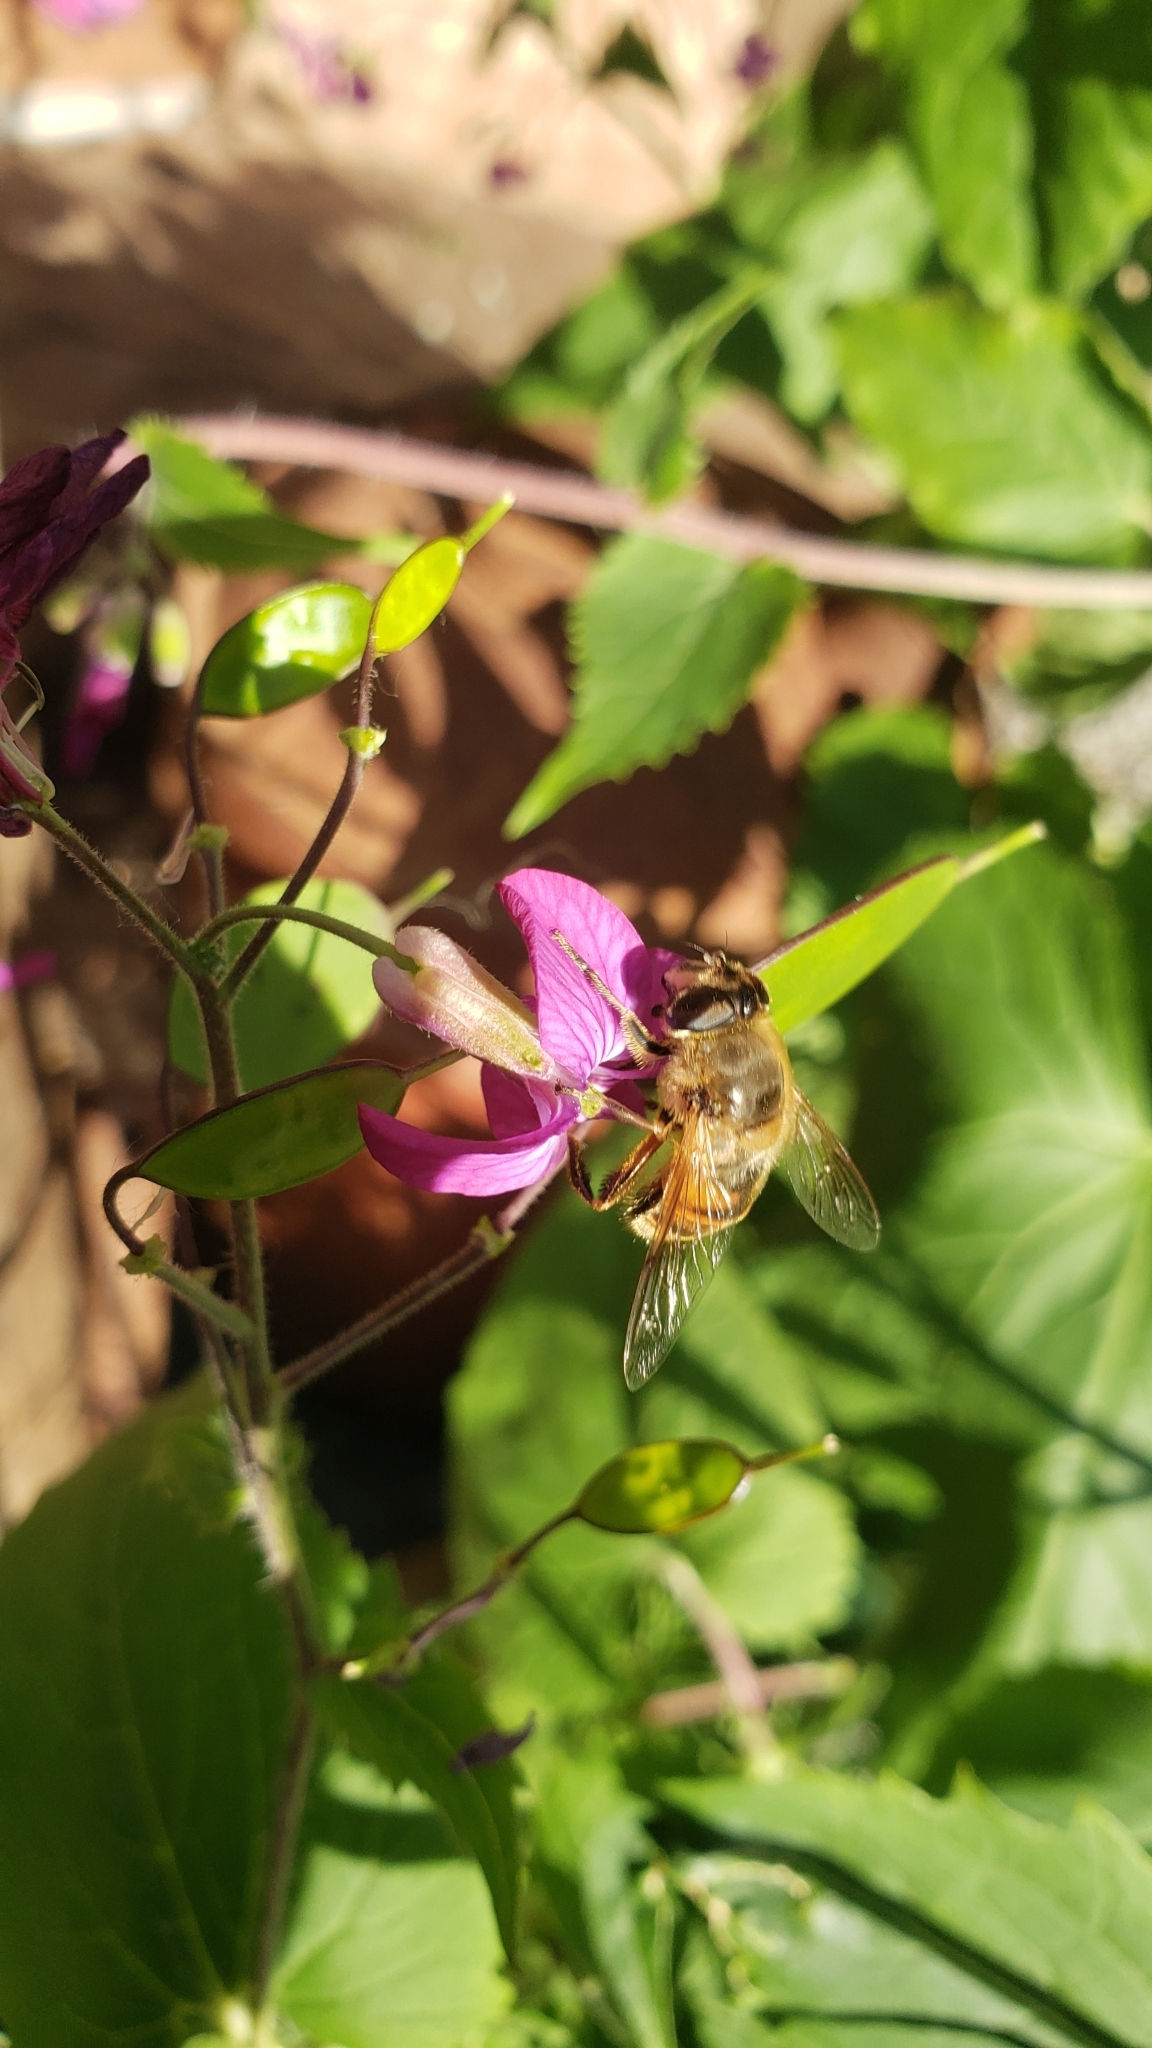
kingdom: Animalia
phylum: Arthropoda
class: Insecta
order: Diptera
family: Syrphidae
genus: Eristalis
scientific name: Eristalis tenax
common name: Drone fly
